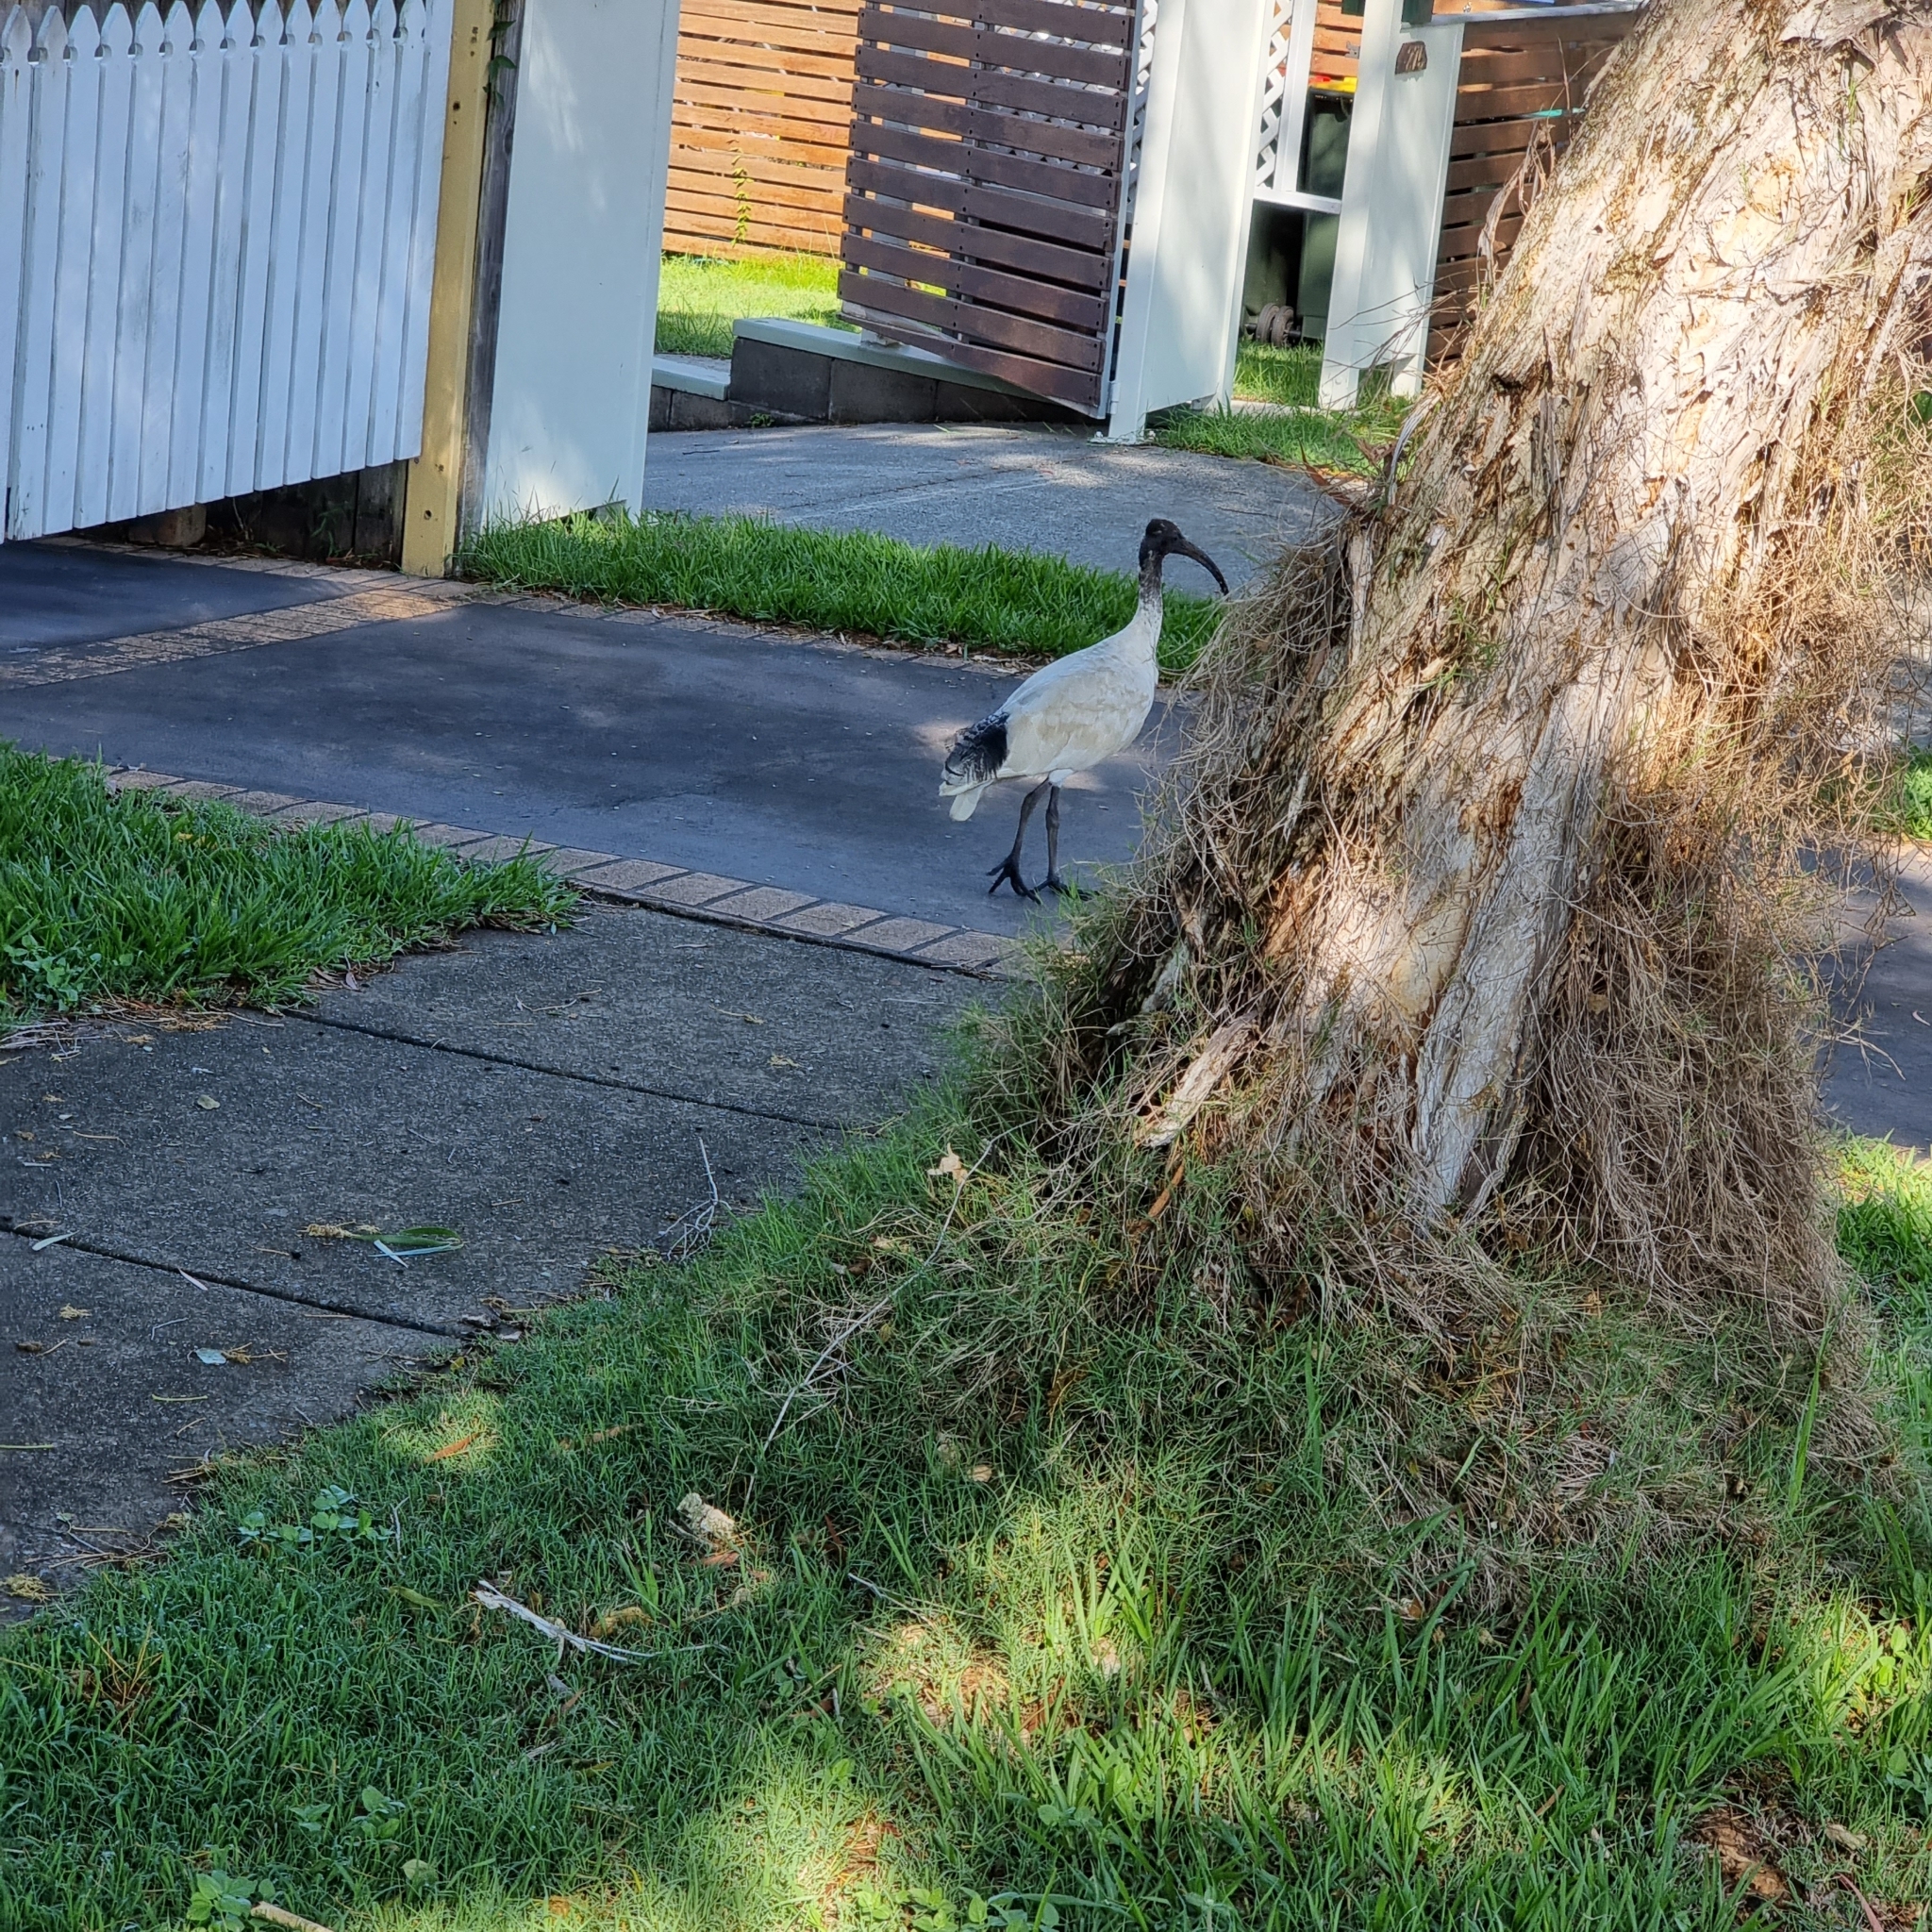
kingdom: Animalia
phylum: Chordata
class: Aves
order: Pelecaniformes
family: Threskiornithidae
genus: Threskiornis
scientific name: Threskiornis molucca
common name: Australian white ibis
